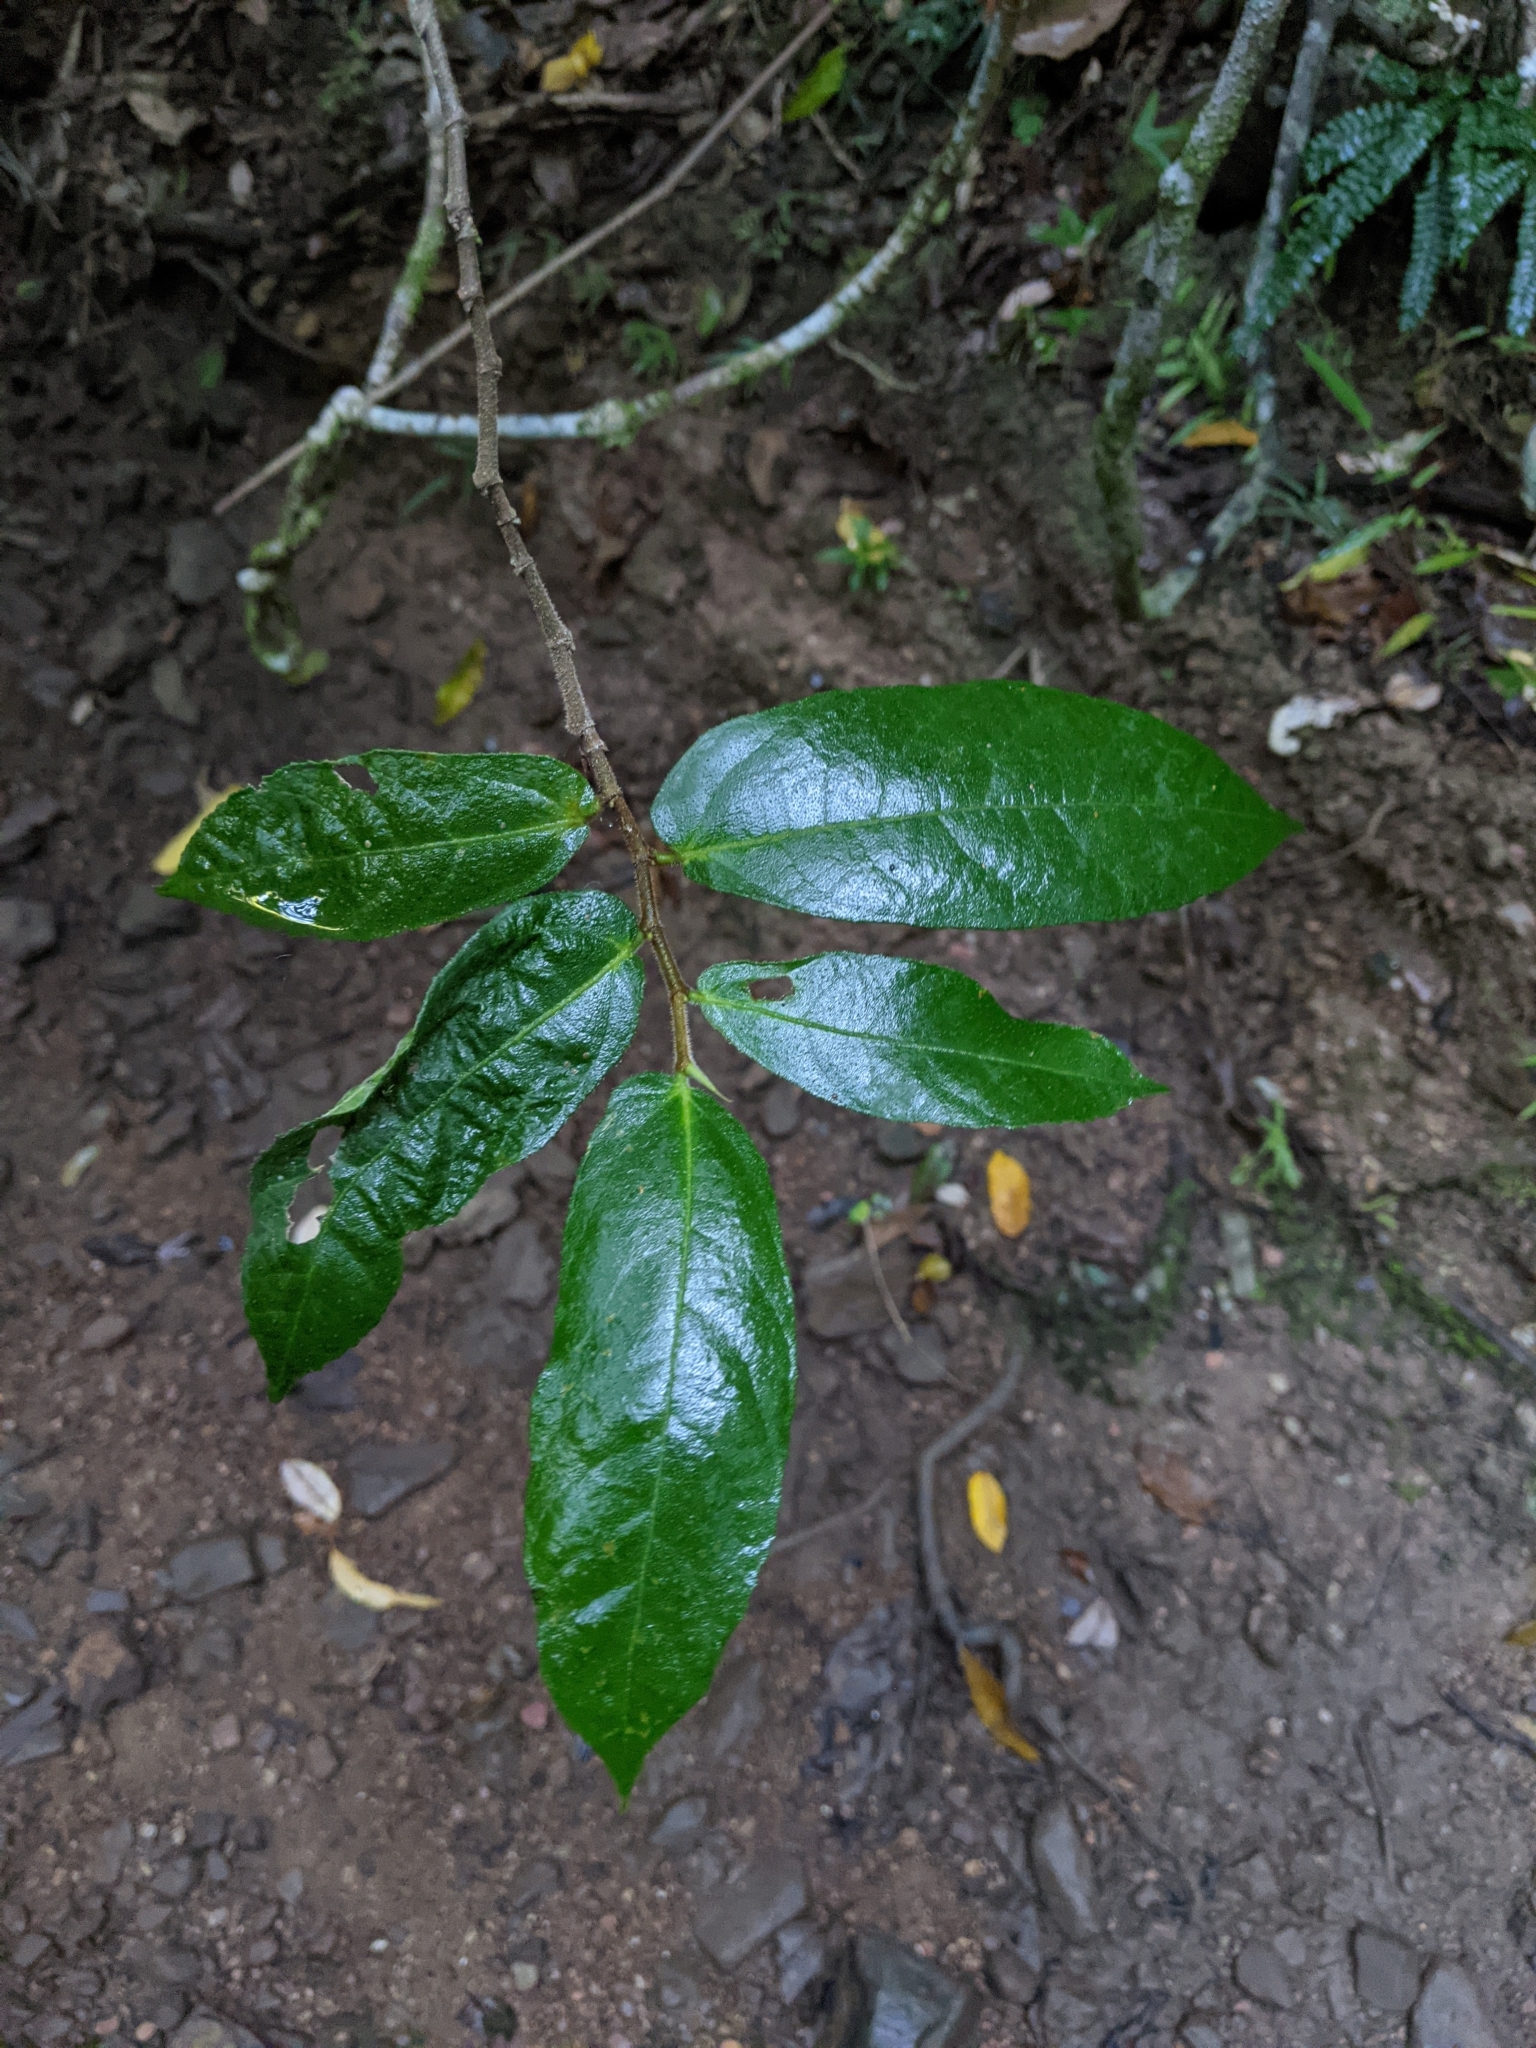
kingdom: Plantae
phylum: Tracheophyta
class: Magnoliopsida
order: Rosales
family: Moraceae
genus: Ficus
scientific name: Ficus coronata
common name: Creek sandpaper fig
